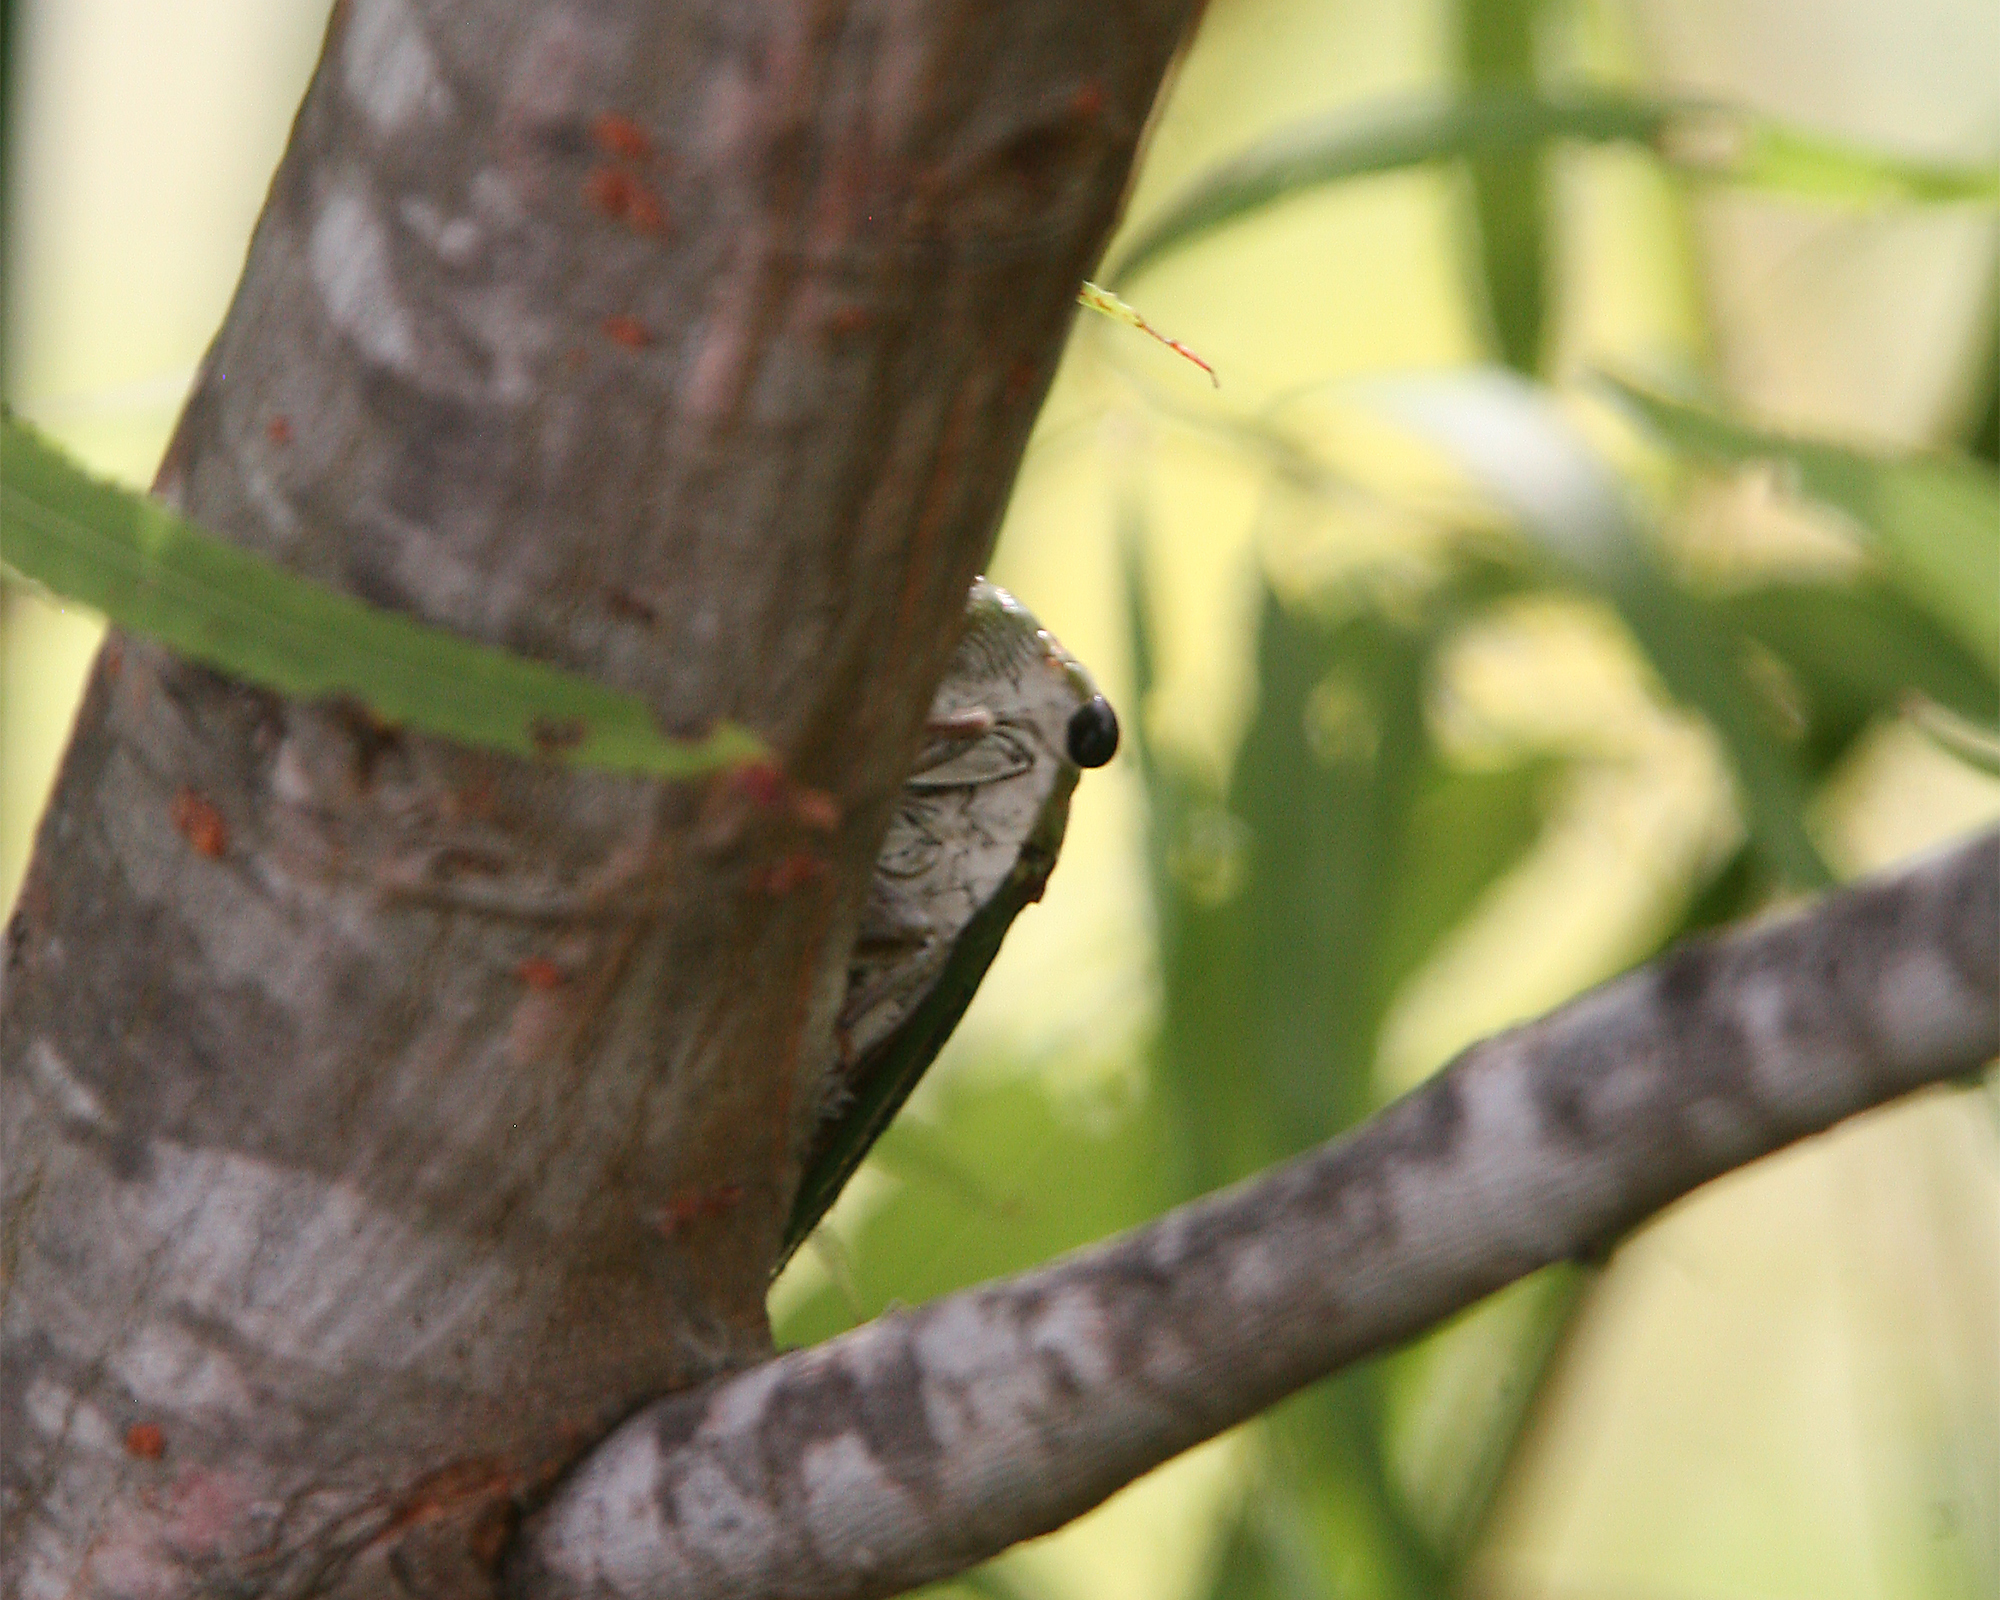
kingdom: Animalia
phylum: Arthropoda
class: Insecta
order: Hemiptera
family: Cicadidae
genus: Neotibicen
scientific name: Neotibicen superbus
